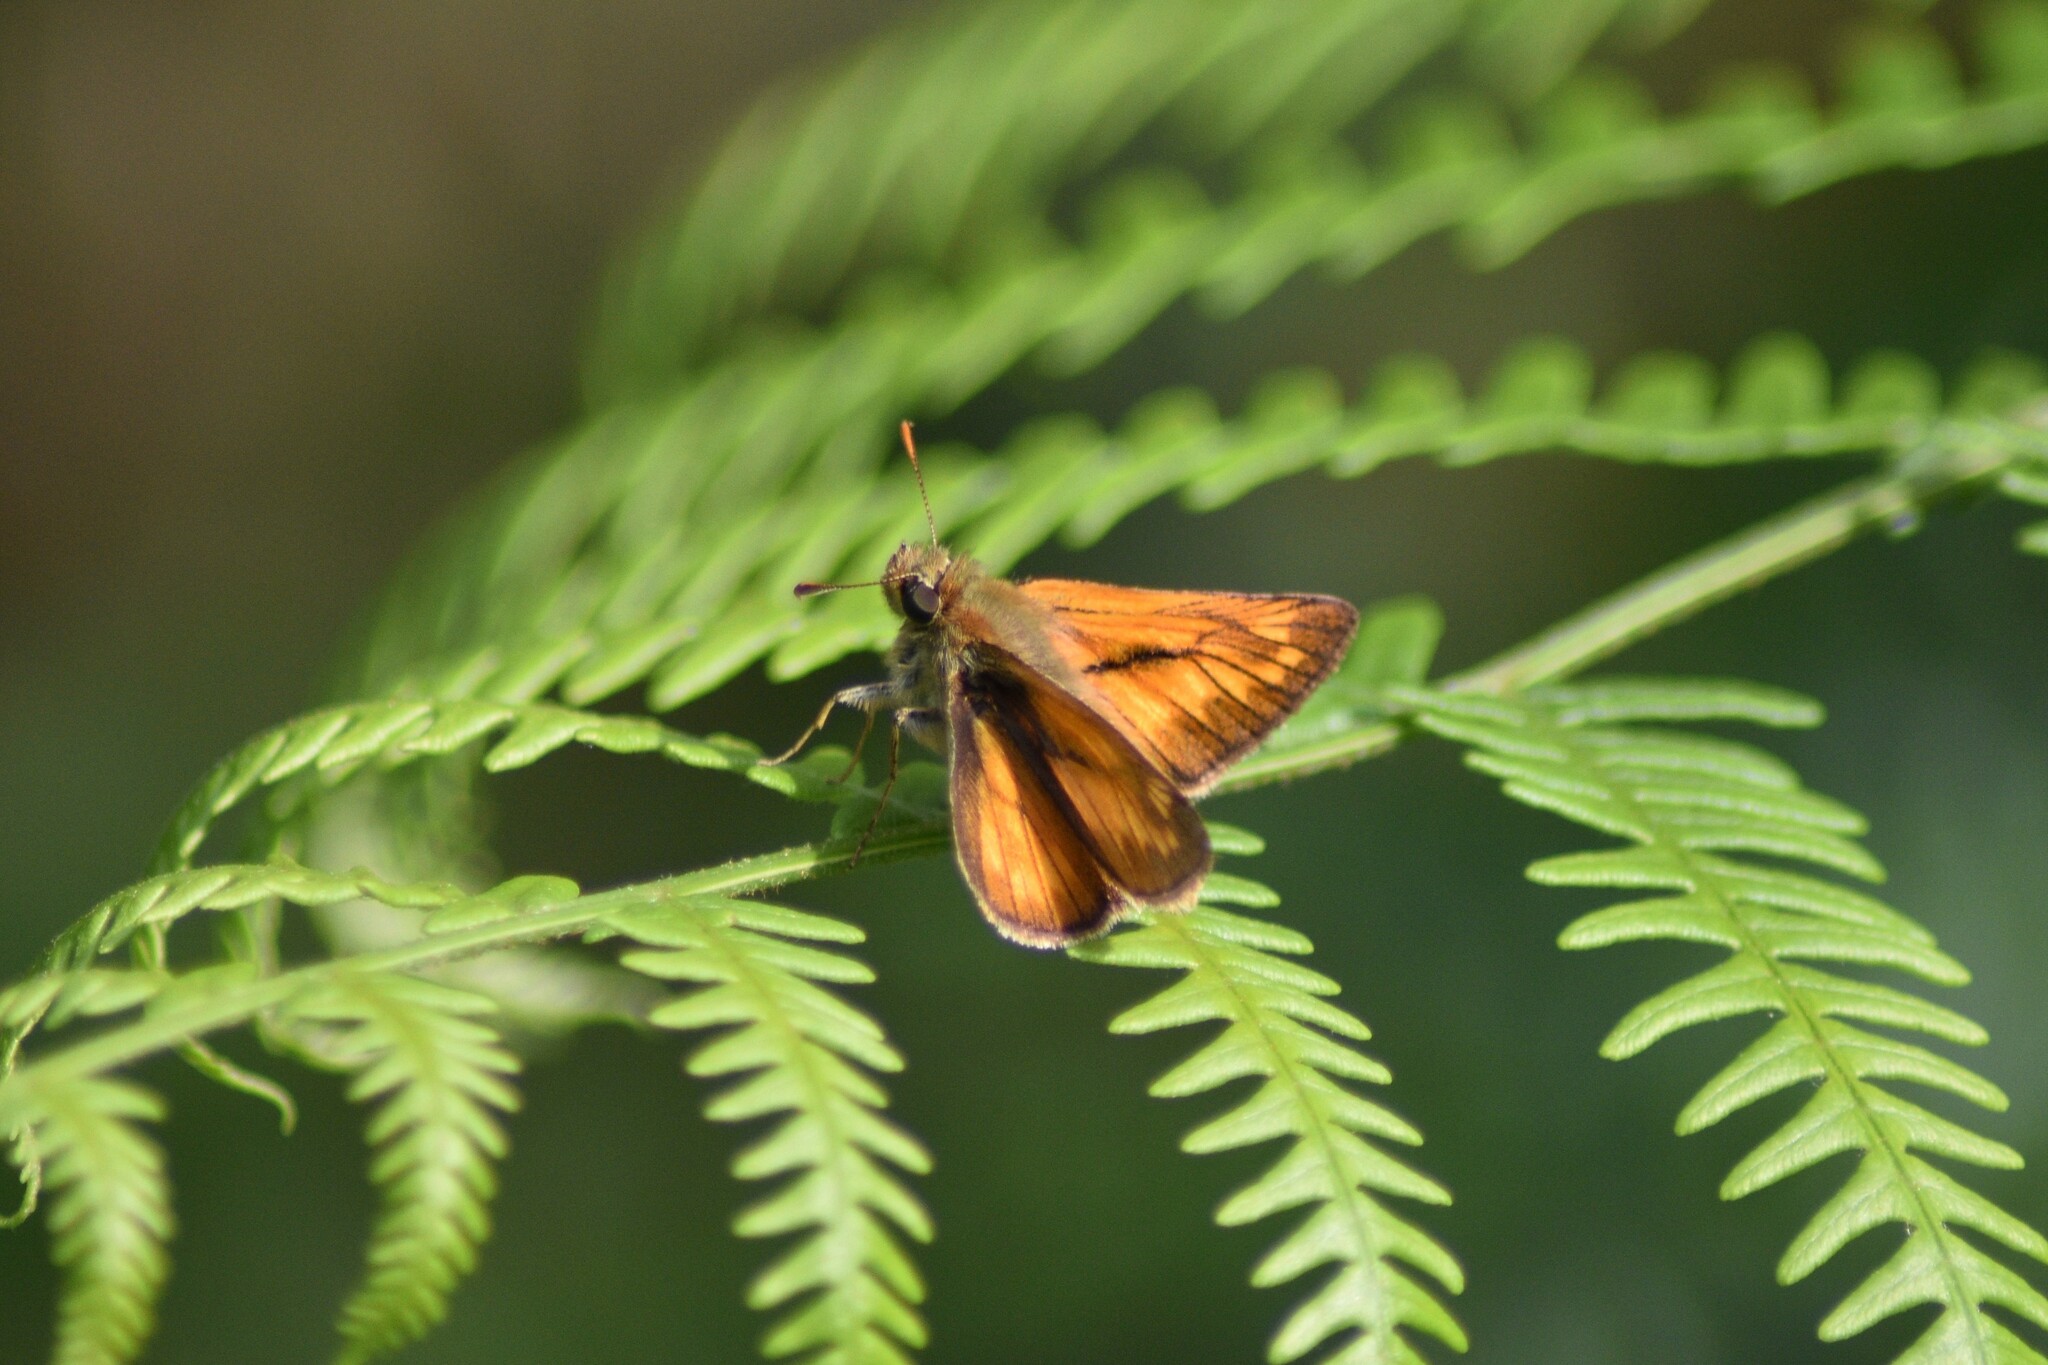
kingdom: Animalia
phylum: Arthropoda
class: Insecta
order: Lepidoptera
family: Hesperiidae
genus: Ochlodes
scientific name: Ochlodes venata
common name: Large skipper
